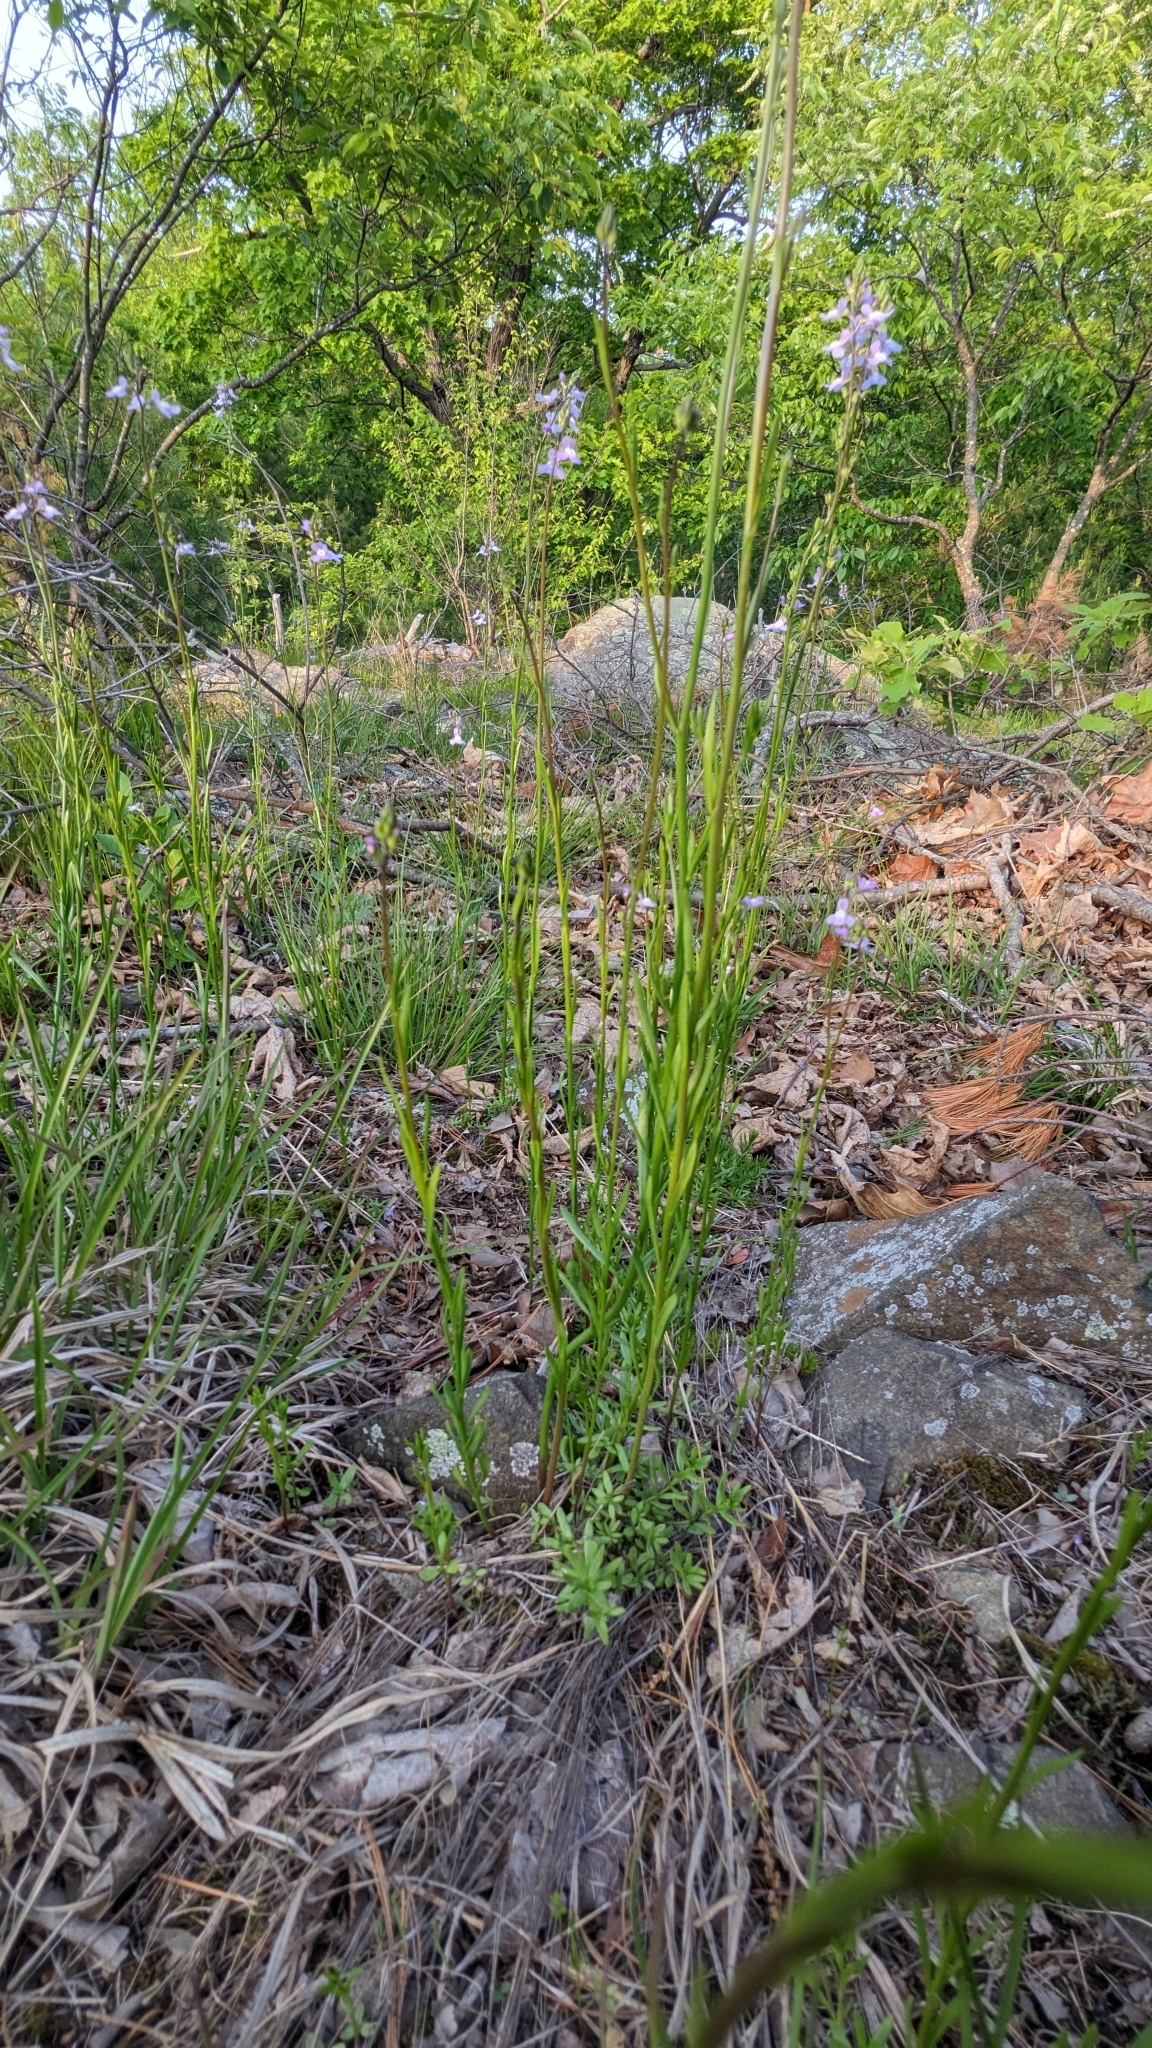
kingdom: Plantae
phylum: Tracheophyta
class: Magnoliopsida
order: Lamiales
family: Plantaginaceae
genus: Nuttallanthus
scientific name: Nuttallanthus canadensis
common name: Blue toadflax
